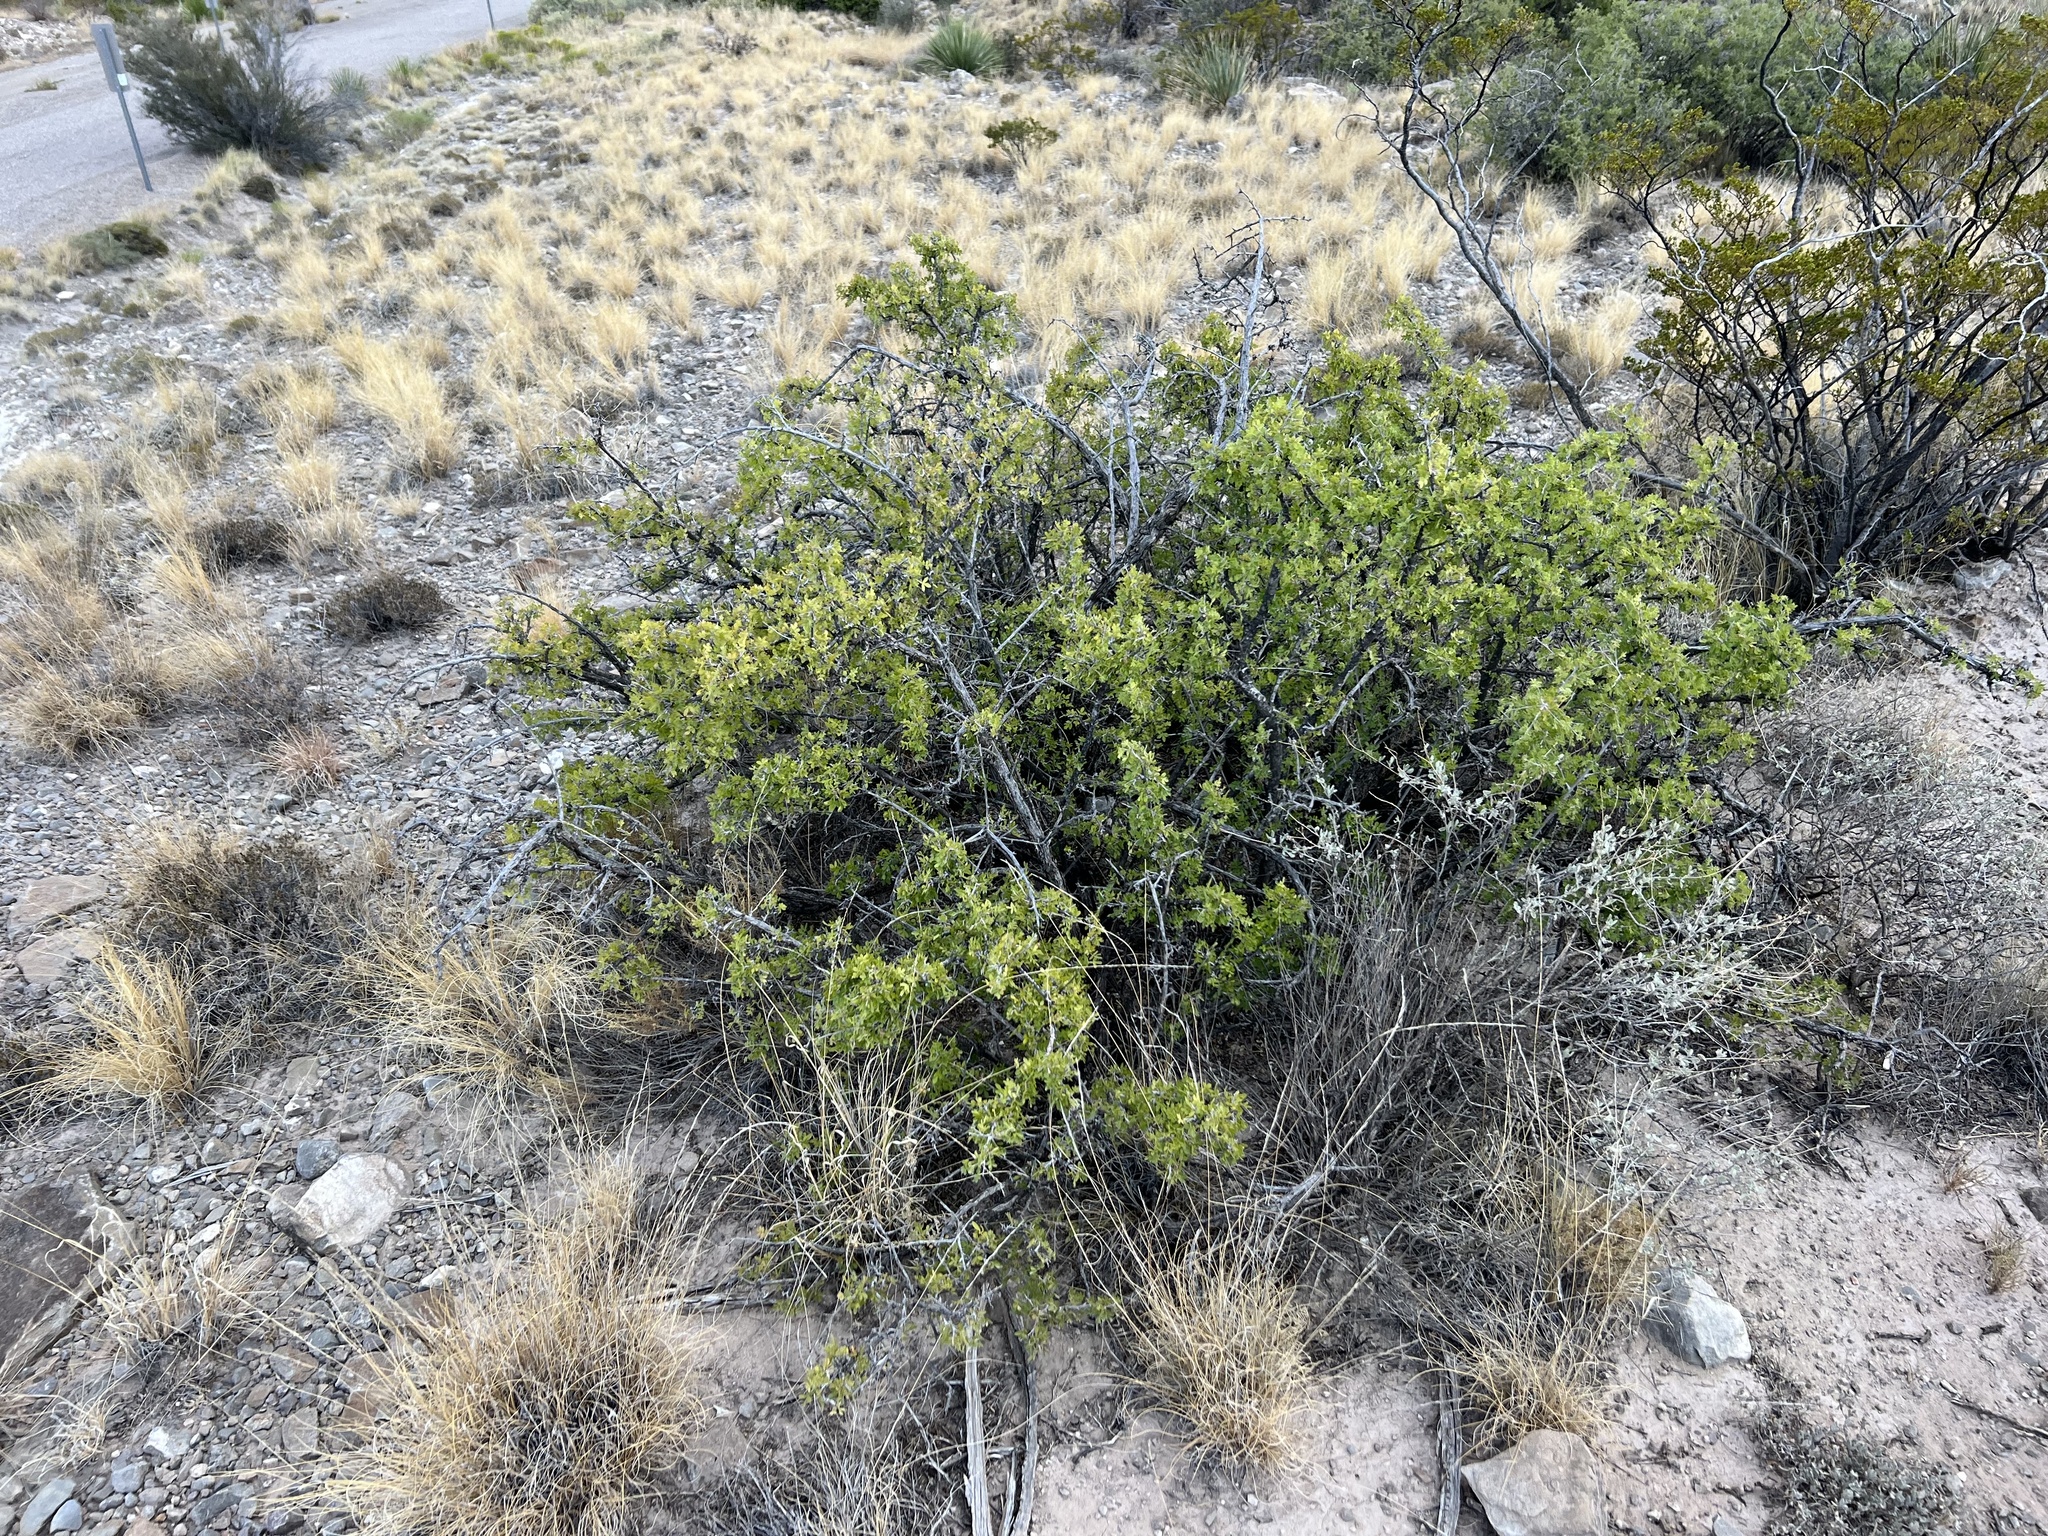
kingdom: Plantae
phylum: Tracheophyta
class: Magnoliopsida
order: Sapindales
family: Anacardiaceae
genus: Rhus
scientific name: Rhus microphylla
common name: Desert sumac
